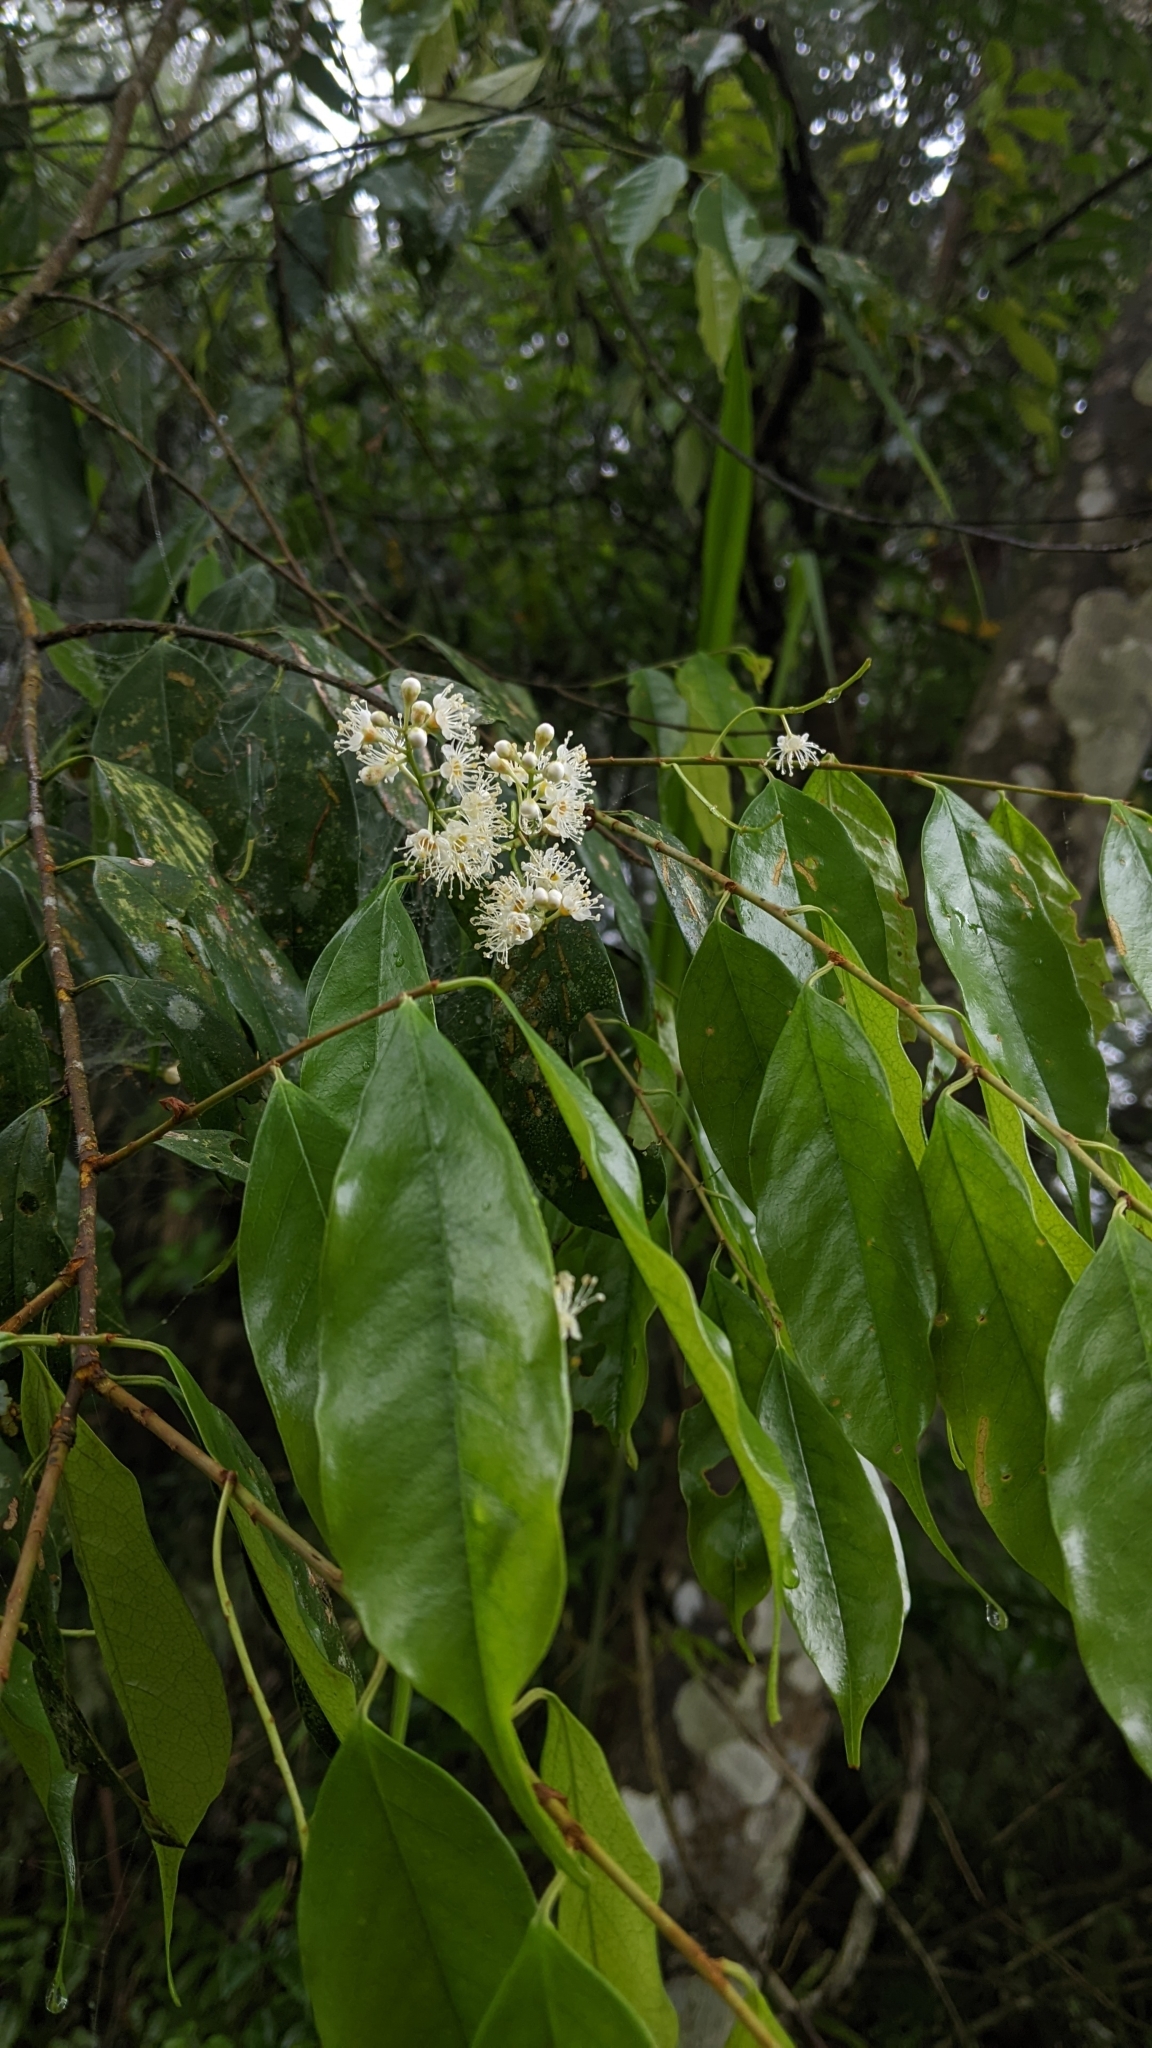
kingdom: Plantae
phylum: Tracheophyta
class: Magnoliopsida
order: Rosales
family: Rosaceae
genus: Prunus
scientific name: Prunus phaeosticta
